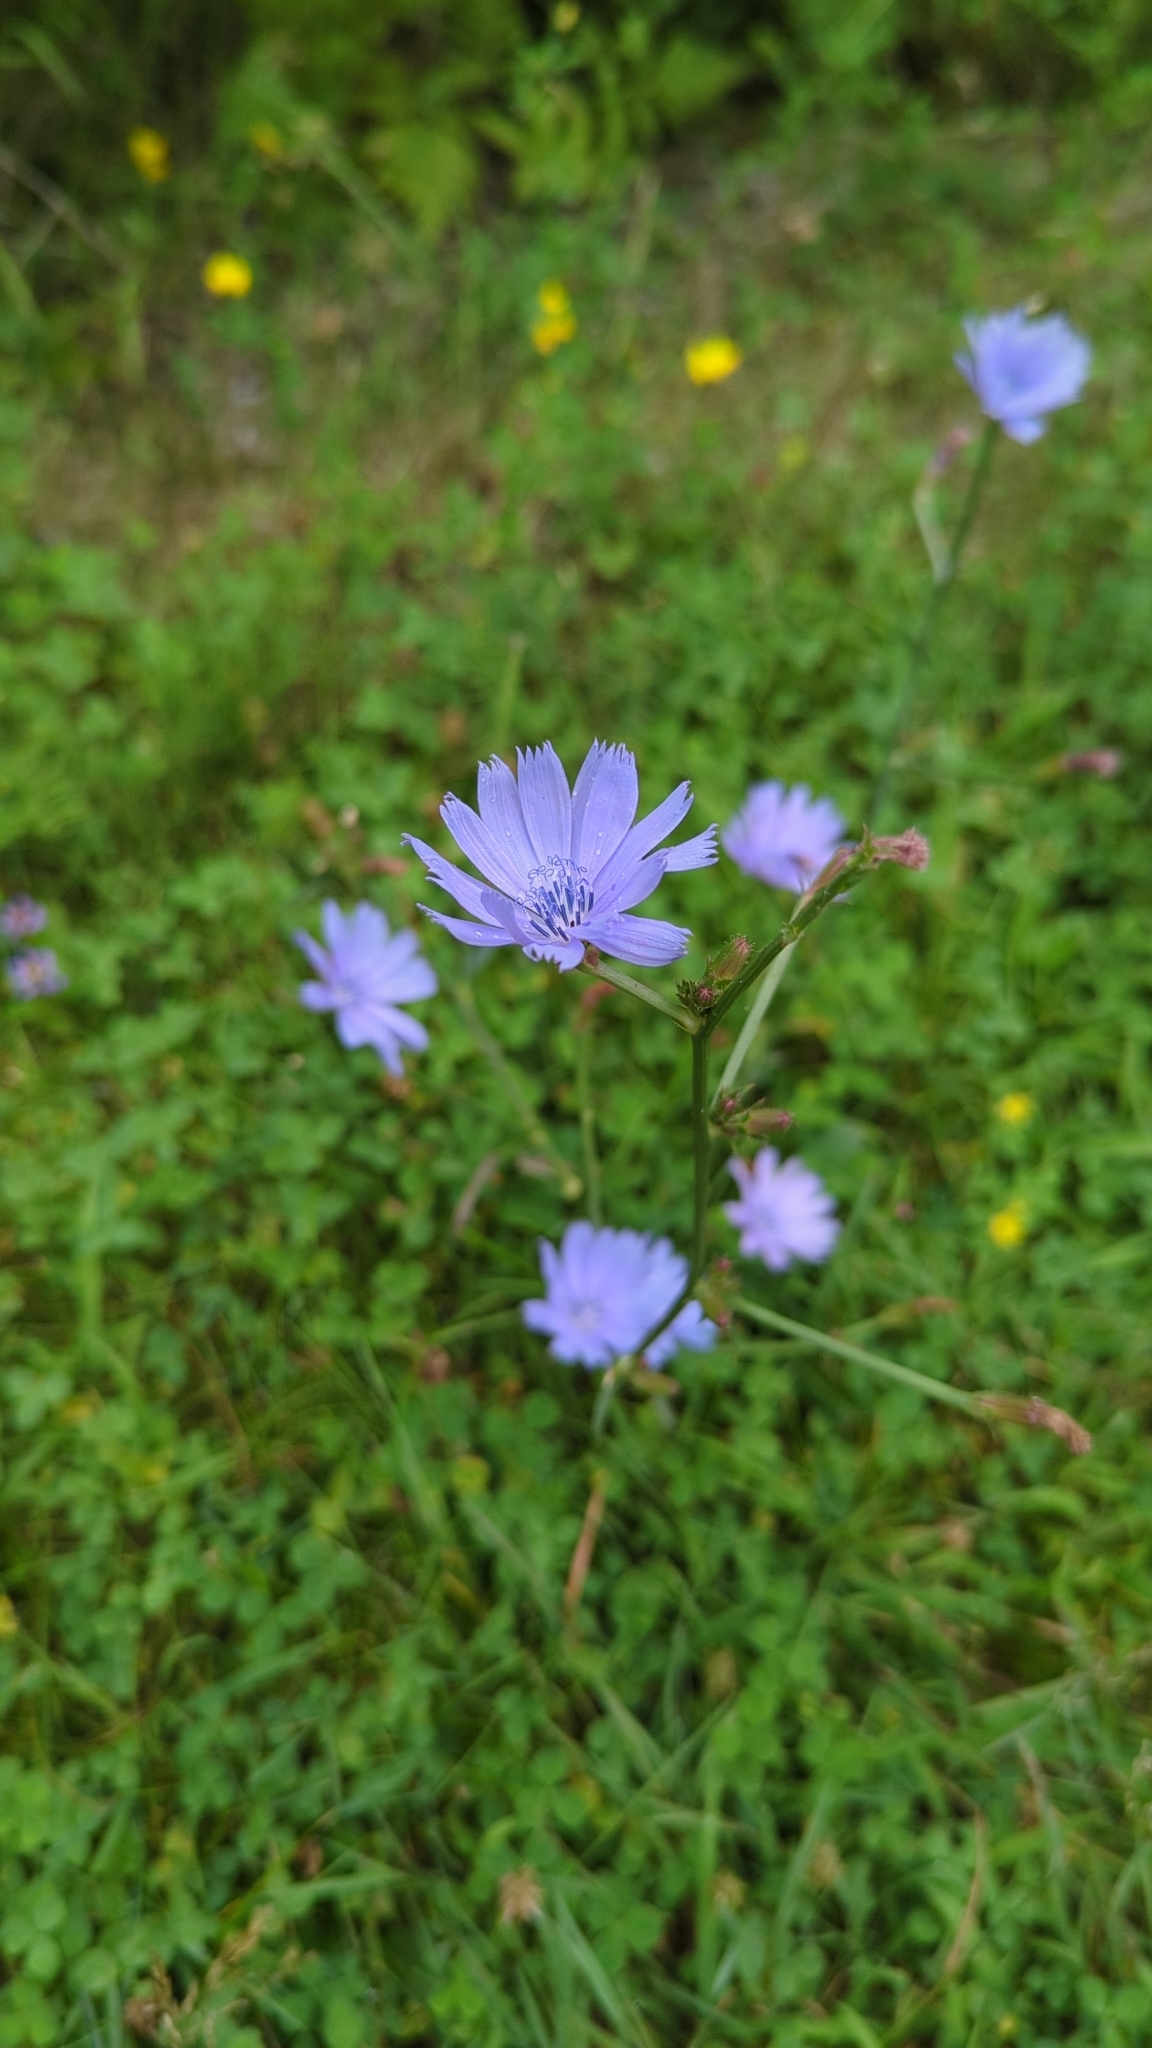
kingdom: Plantae
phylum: Tracheophyta
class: Magnoliopsida
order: Asterales
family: Asteraceae
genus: Cichorium
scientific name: Cichorium intybus
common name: Chicory
